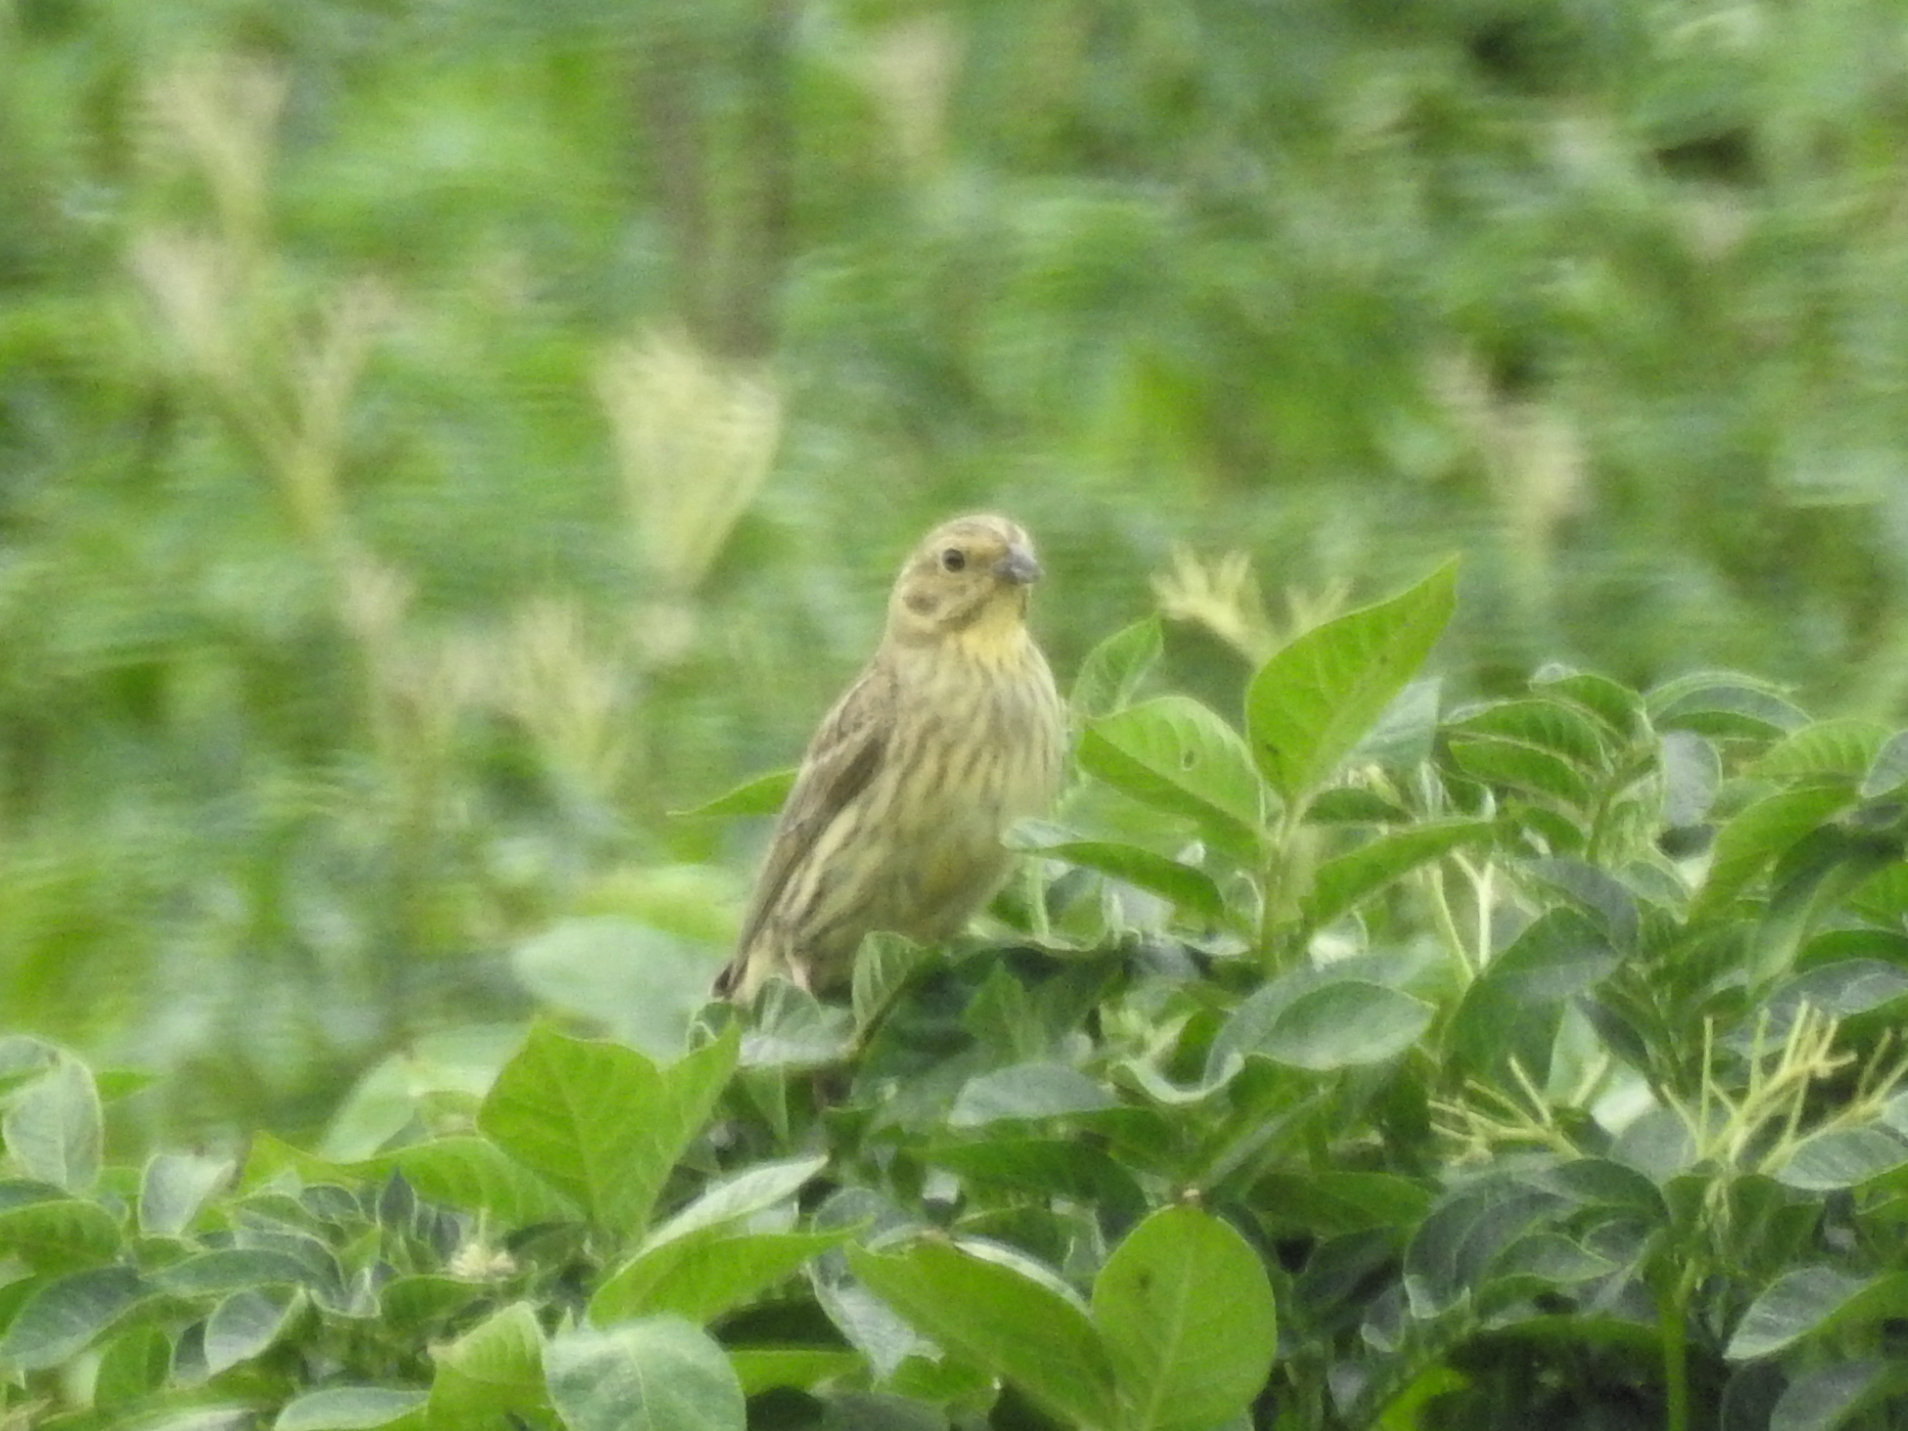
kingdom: Animalia
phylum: Chordata
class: Aves
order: Passeriformes
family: Emberizidae
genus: Emberiza
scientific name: Emberiza citrinella
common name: Yellowhammer
